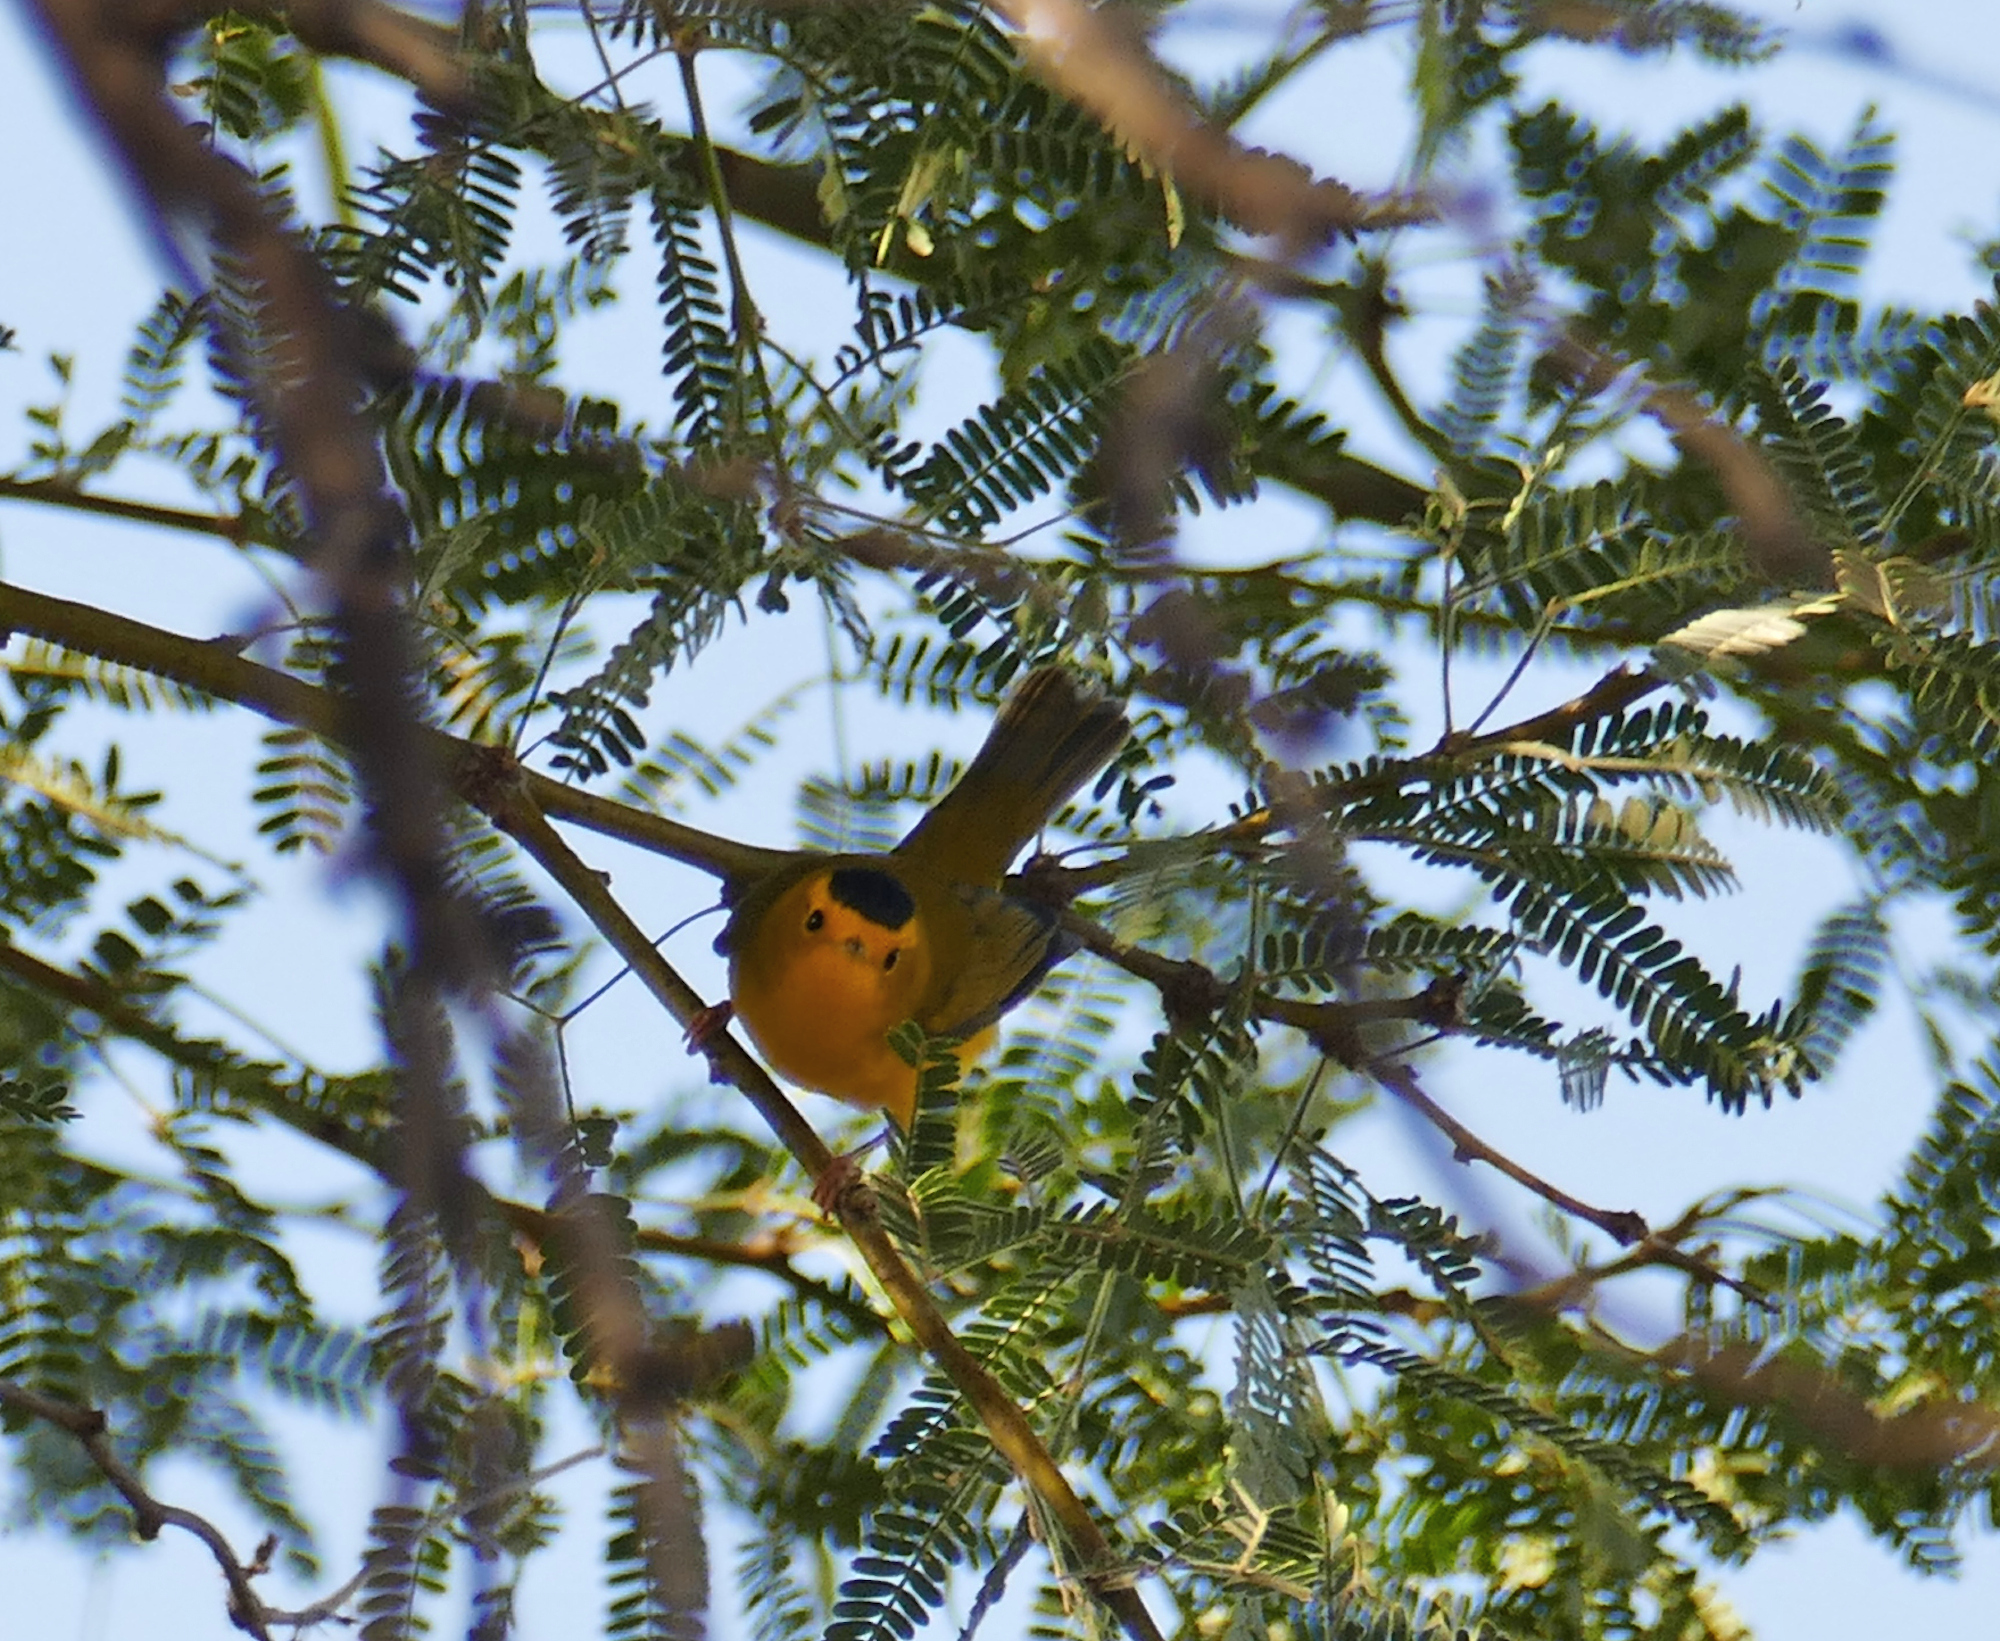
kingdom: Animalia
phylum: Chordata
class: Aves
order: Passeriformes
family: Parulidae
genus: Cardellina
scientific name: Cardellina pusilla
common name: Wilson's warbler
